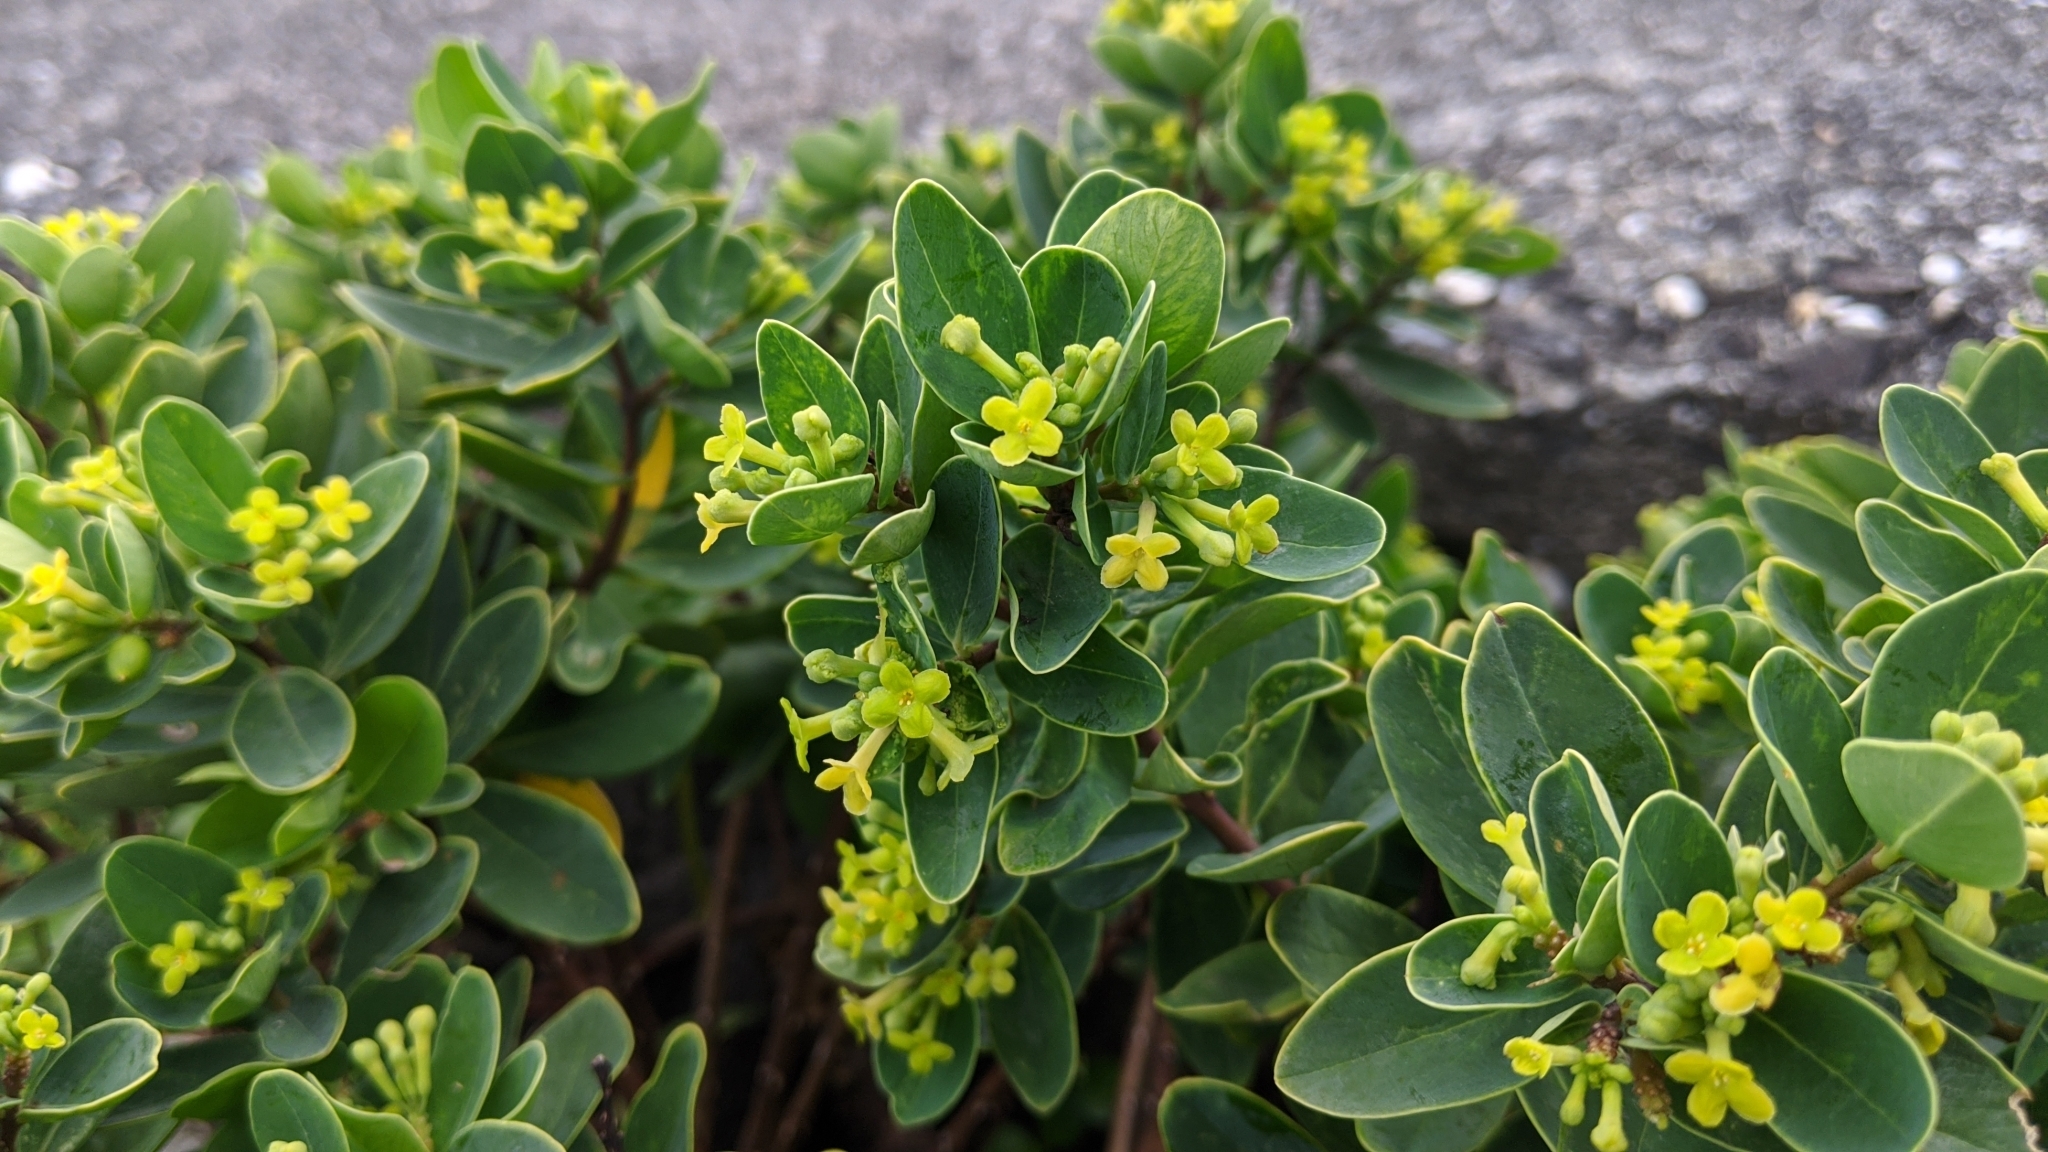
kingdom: Plantae
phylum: Tracheophyta
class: Magnoliopsida
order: Malvales
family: Thymelaeaceae
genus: Wikstroemia
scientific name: Wikstroemia indica
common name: Tiebush
